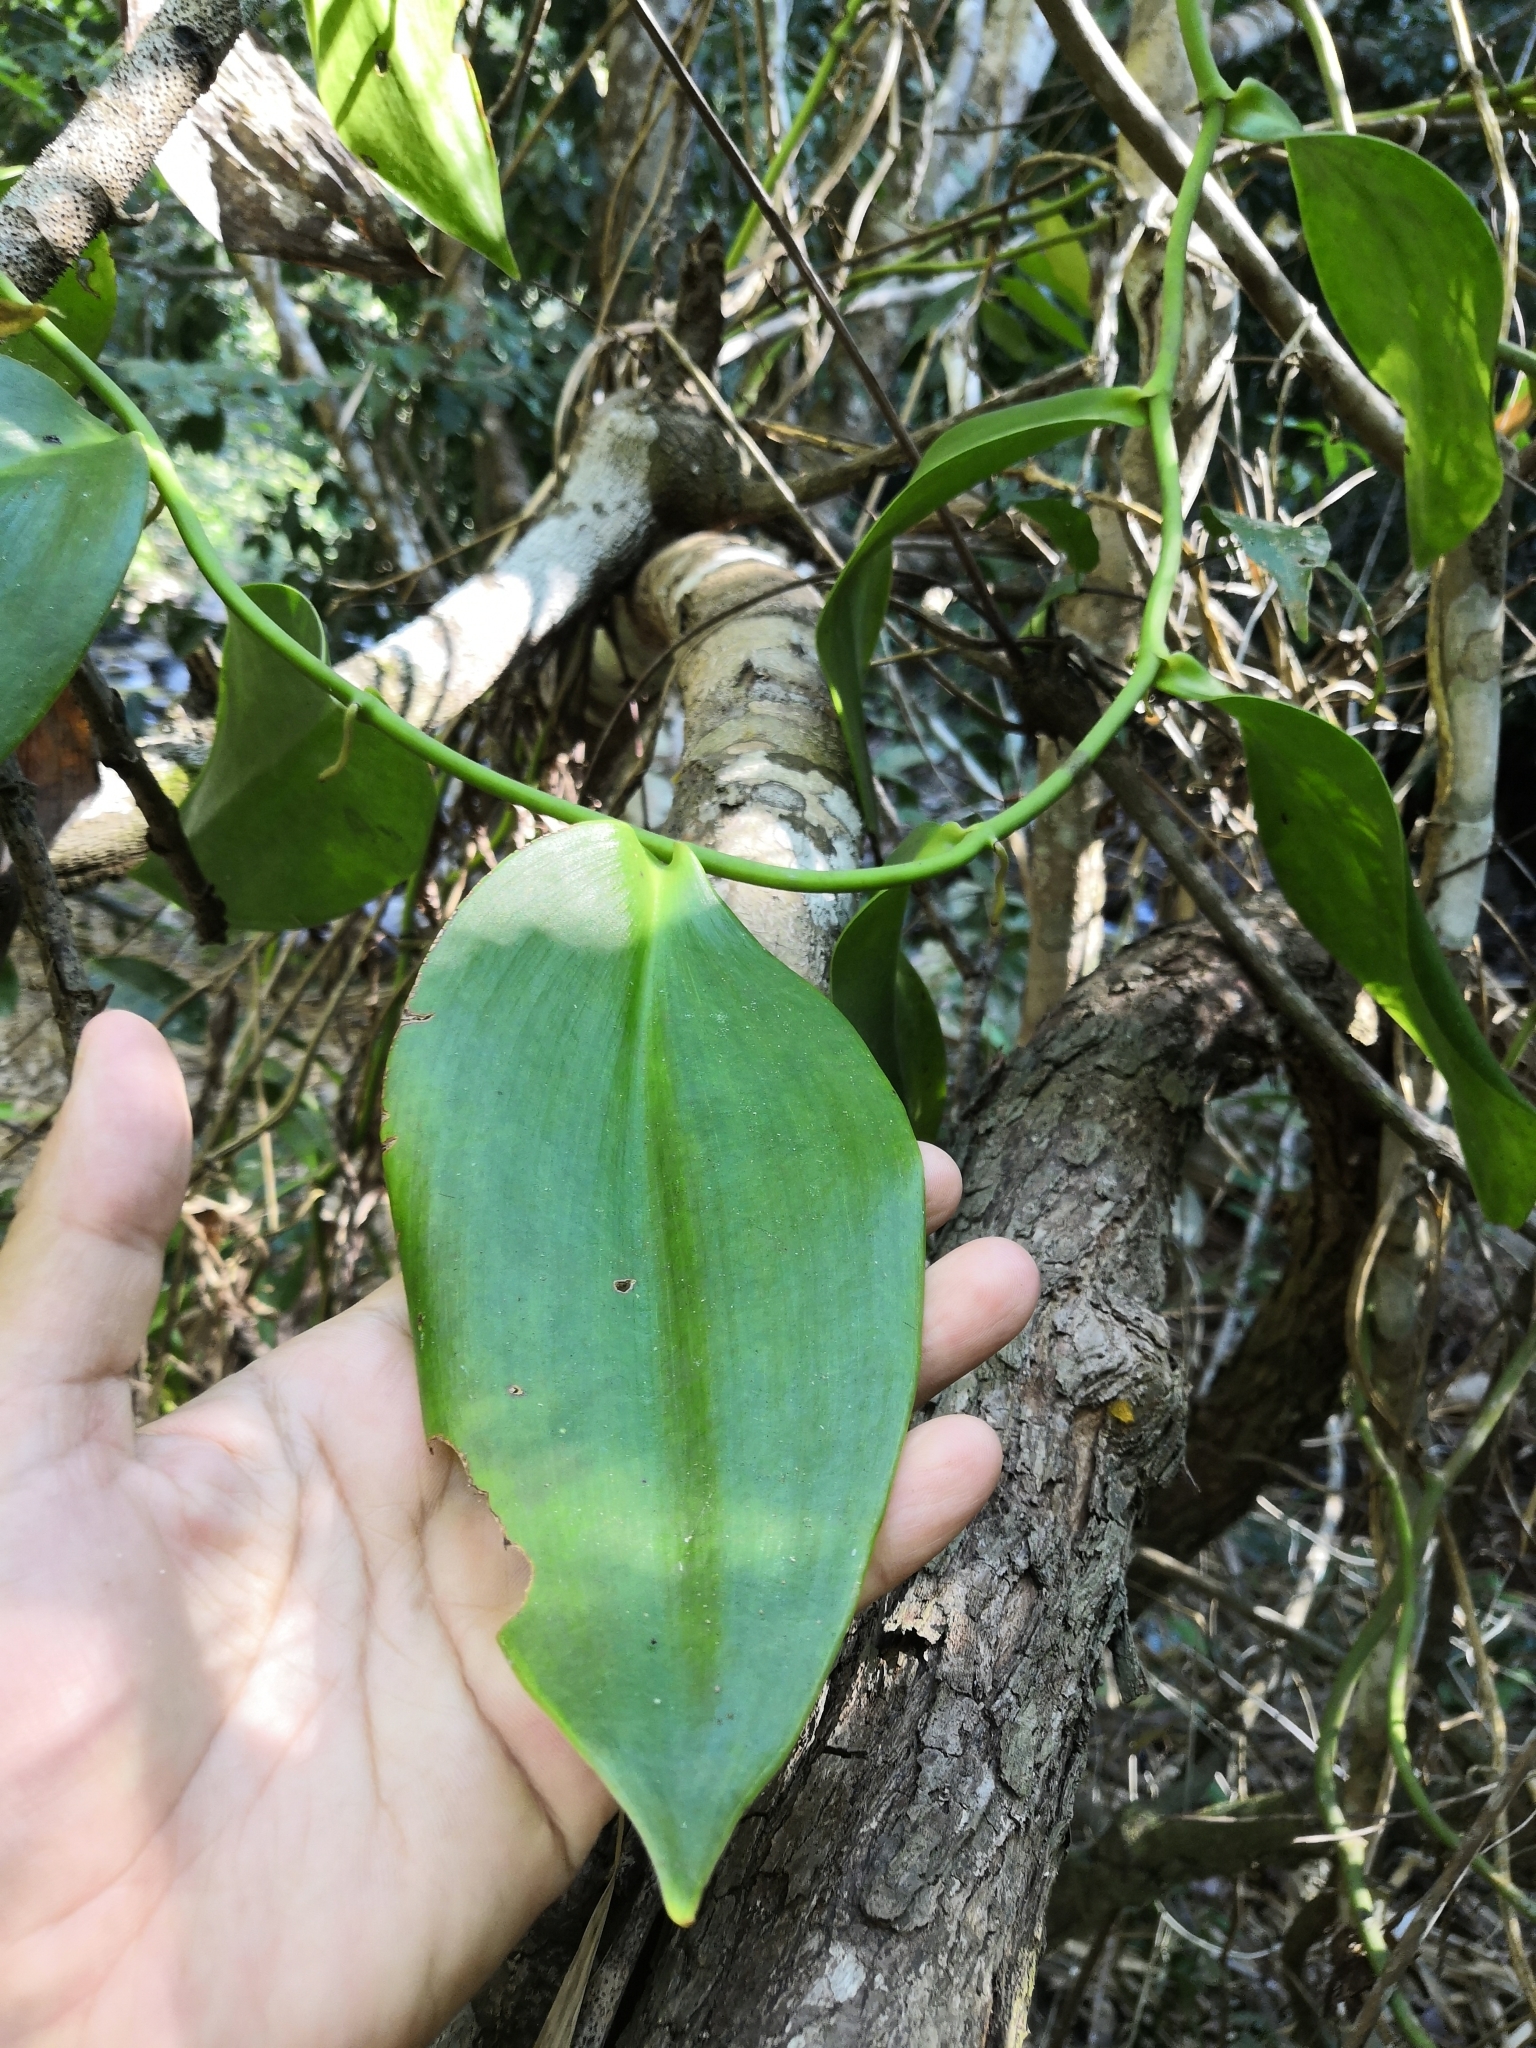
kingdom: Plantae
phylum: Tracheophyta
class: Liliopsida
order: Asparagales
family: Orchidaceae
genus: Vanilla
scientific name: Vanilla inodora
